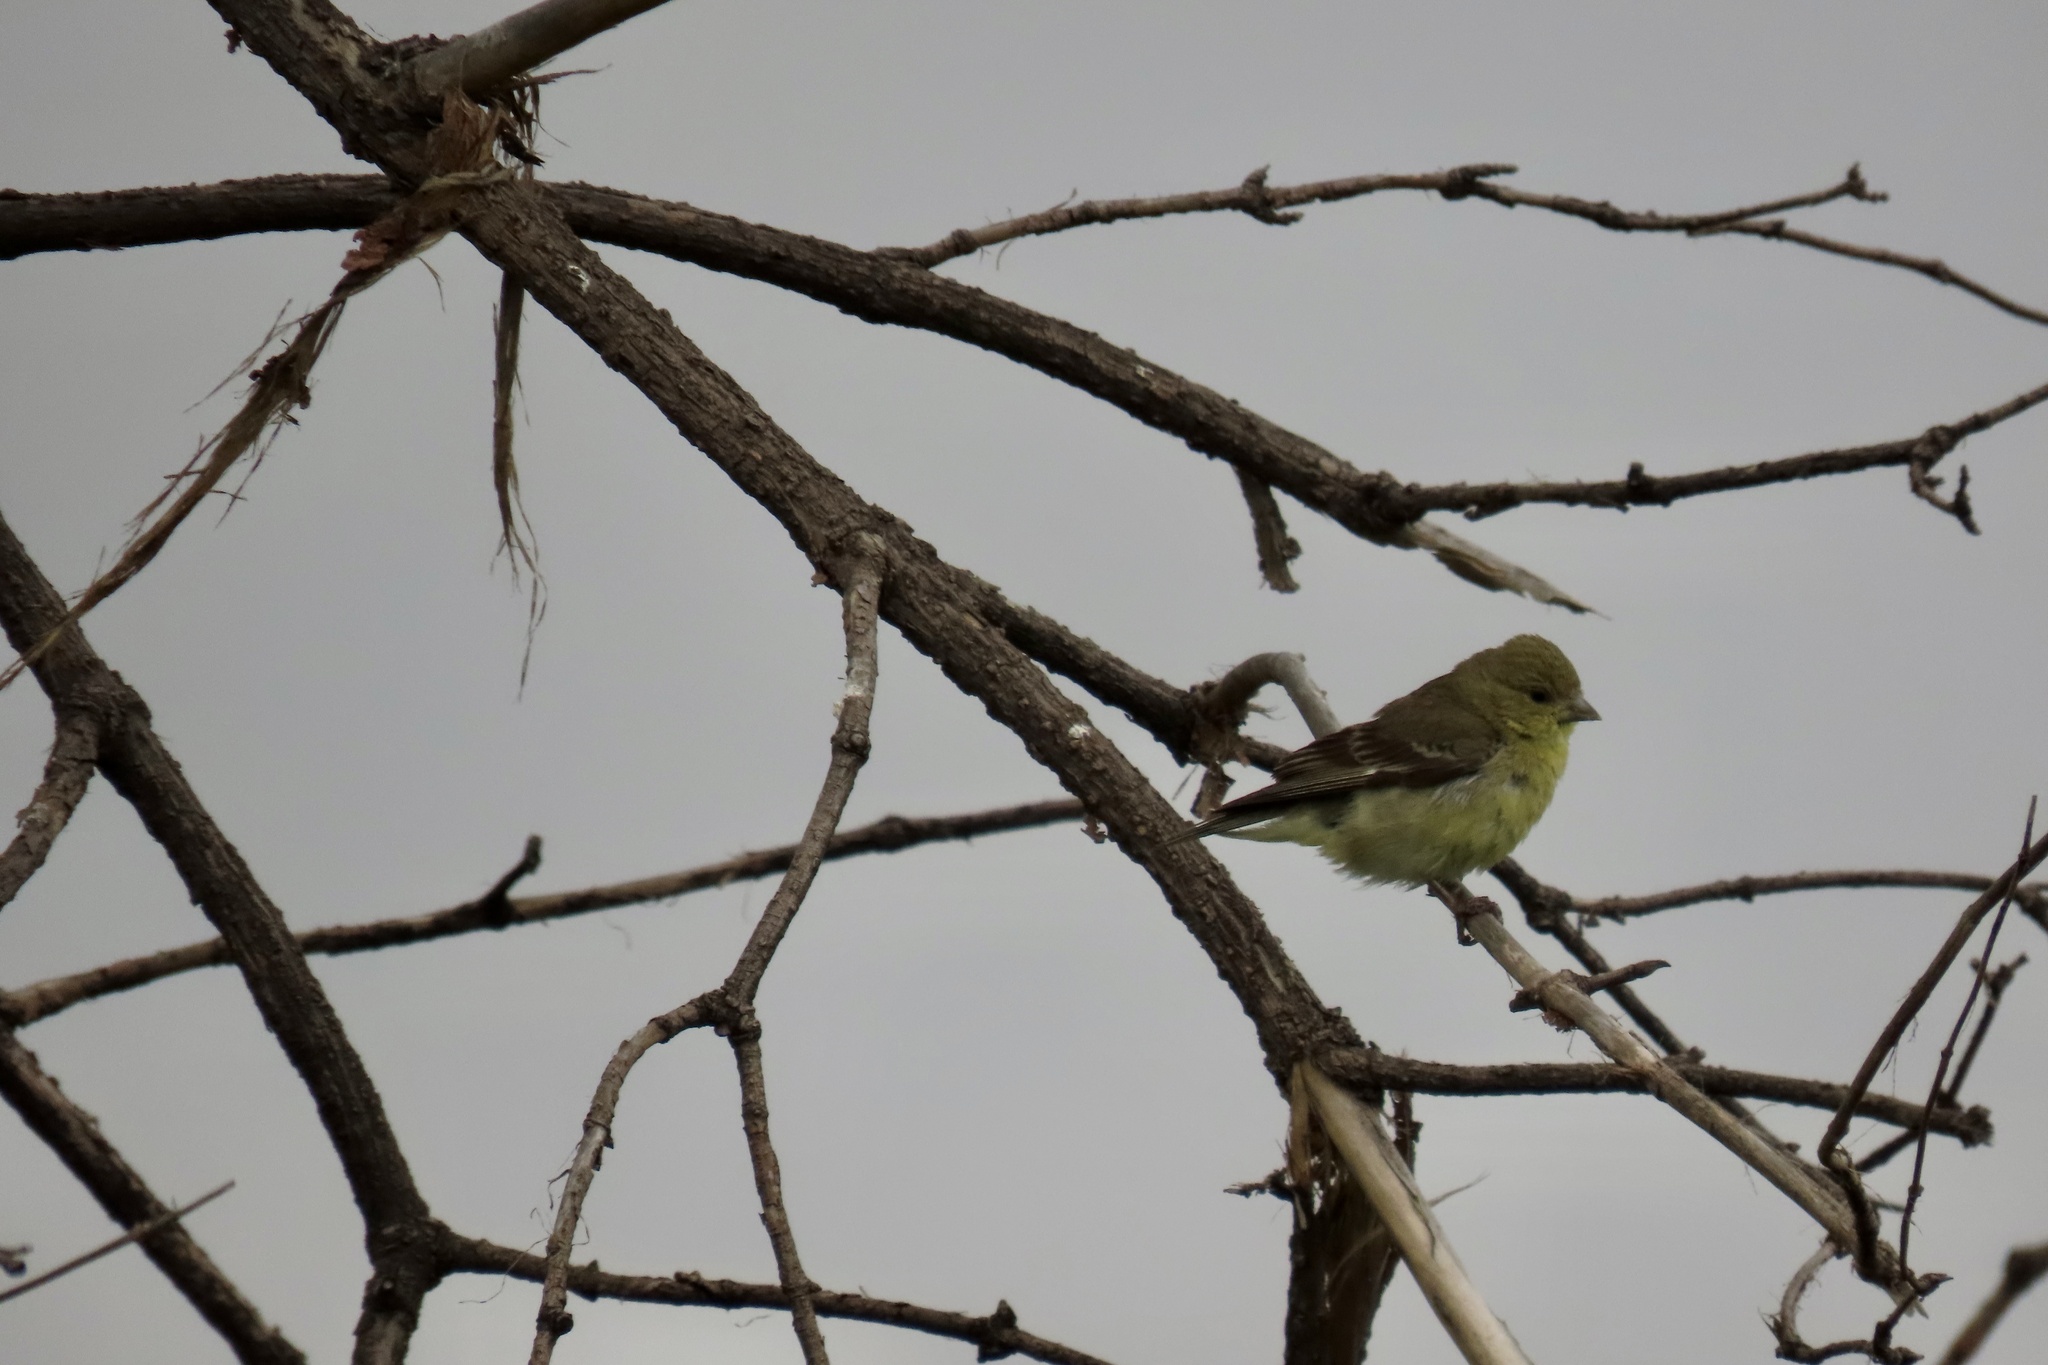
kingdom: Animalia
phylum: Chordata
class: Aves
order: Passeriformes
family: Fringillidae
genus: Spinus
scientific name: Spinus psaltria
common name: Lesser goldfinch
